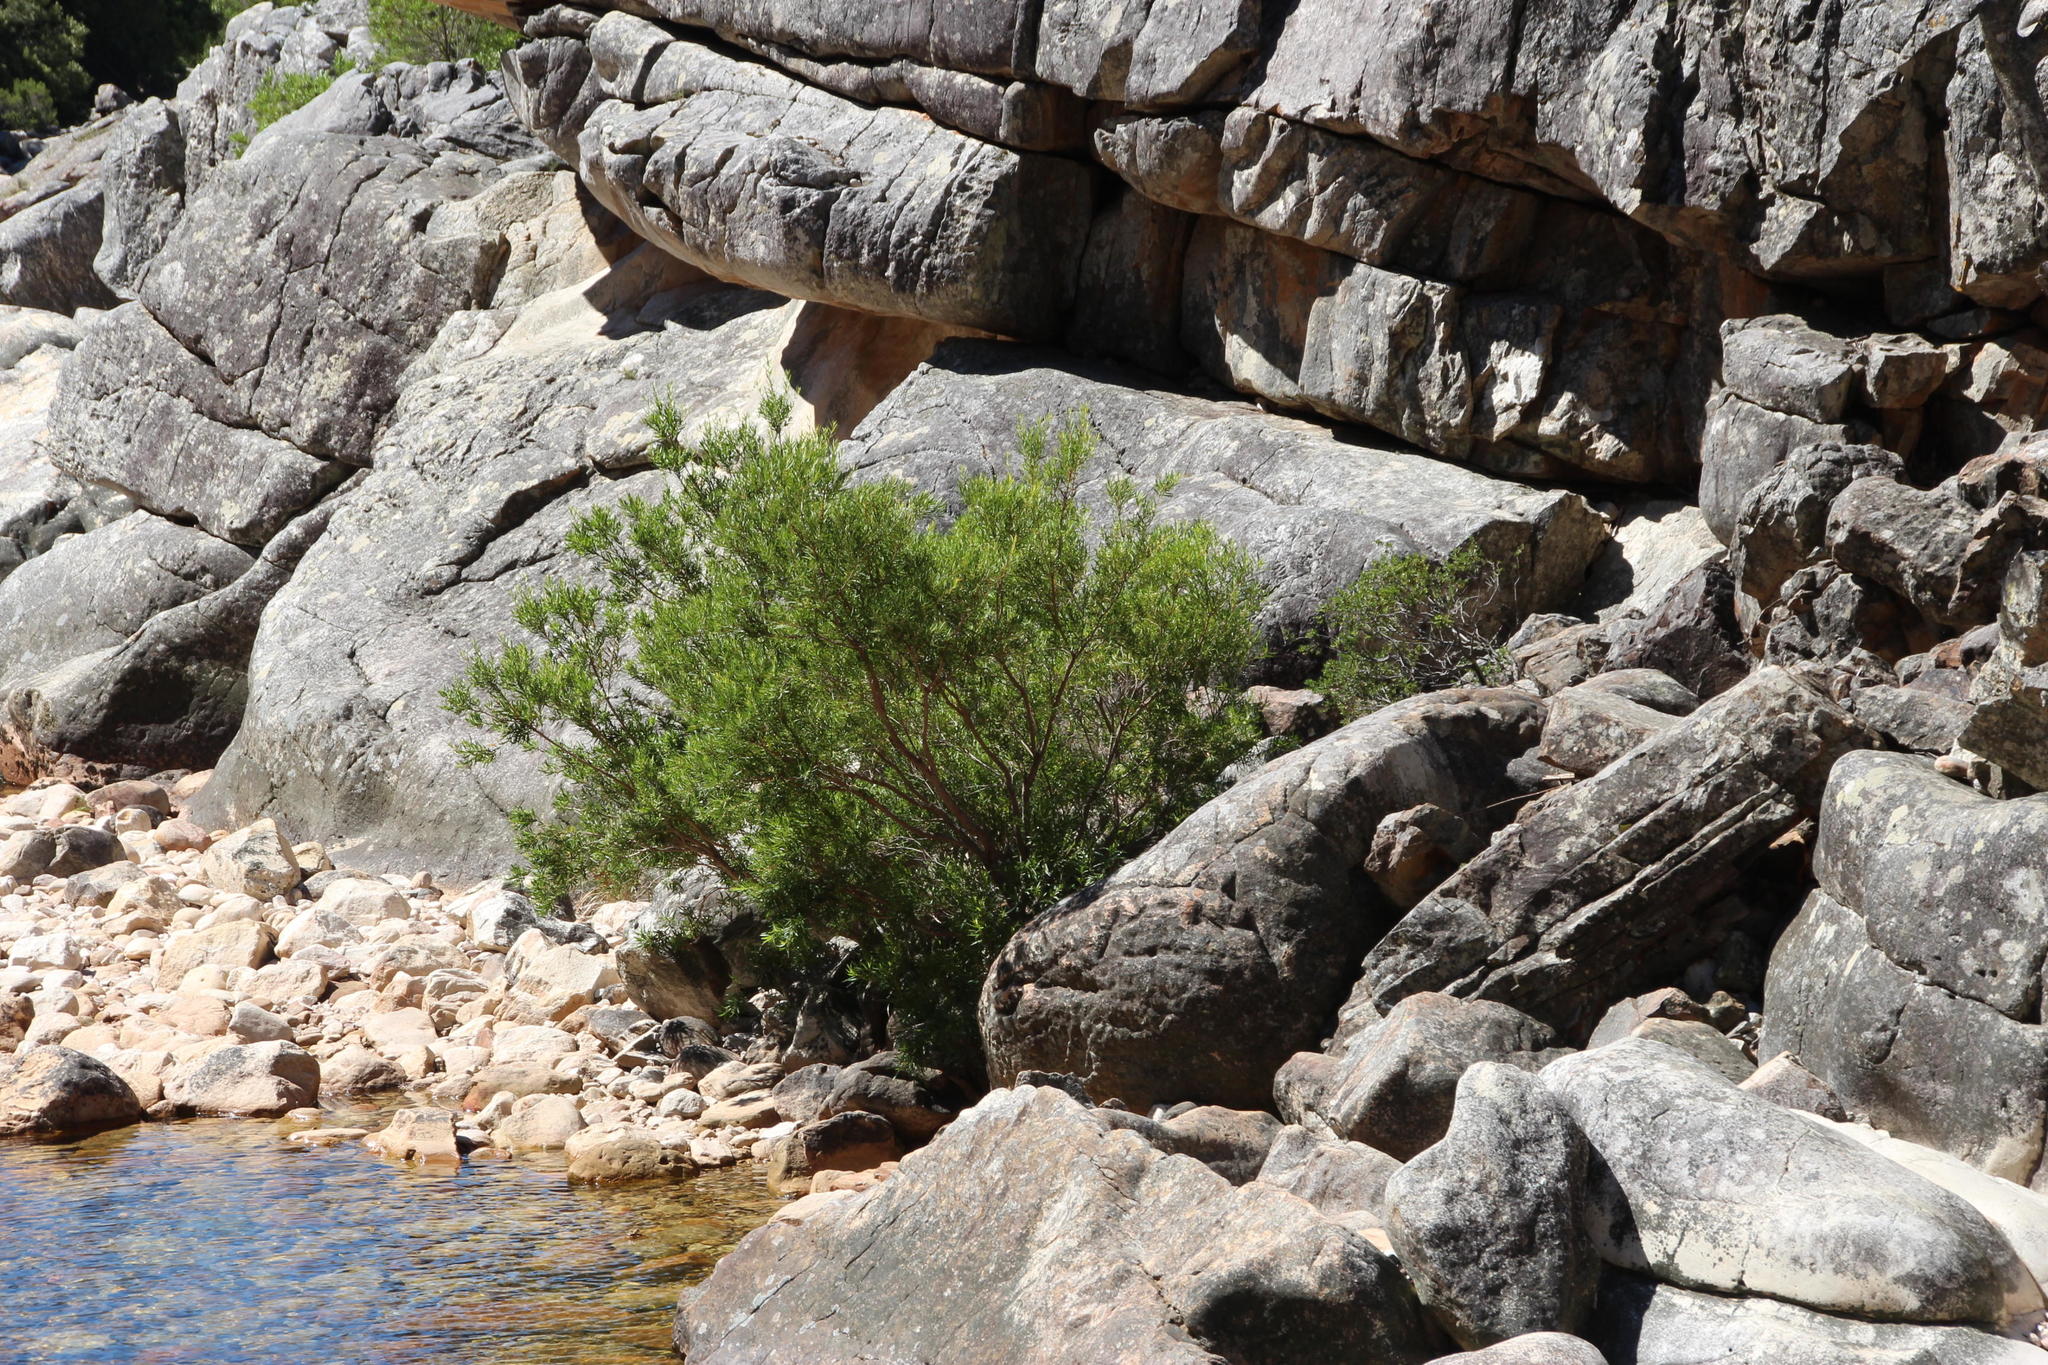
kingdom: Plantae
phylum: Tracheophyta
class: Magnoliopsida
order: Myrtales
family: Myrtaceae
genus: Callistemon
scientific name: Callistemon lanceolatus
